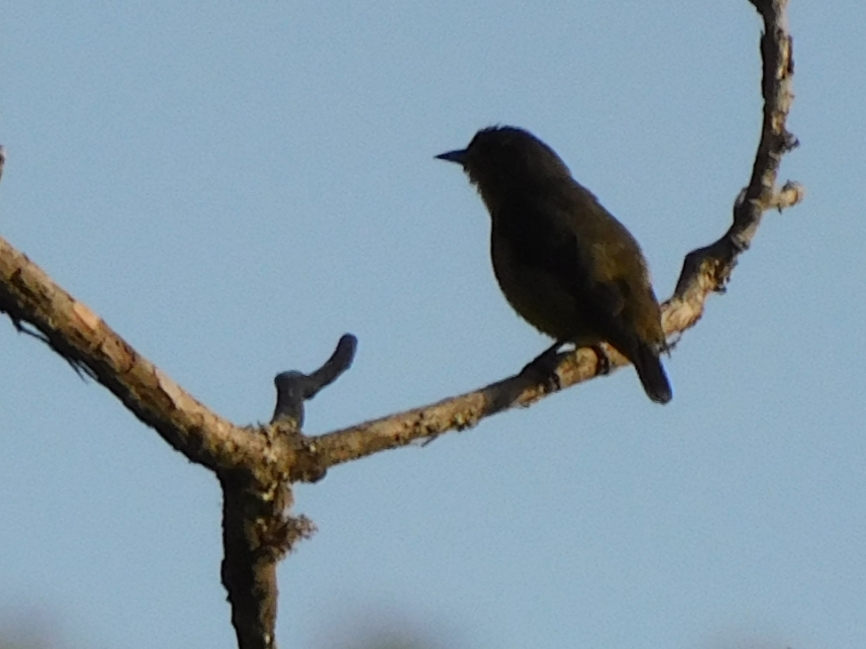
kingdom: Animalia
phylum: Chordata
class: Aves
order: Passeriformes
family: Dicaeidae
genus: Dicaeum
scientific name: Dicaeum ignipectus
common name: Fire-breasted flowerpecker
